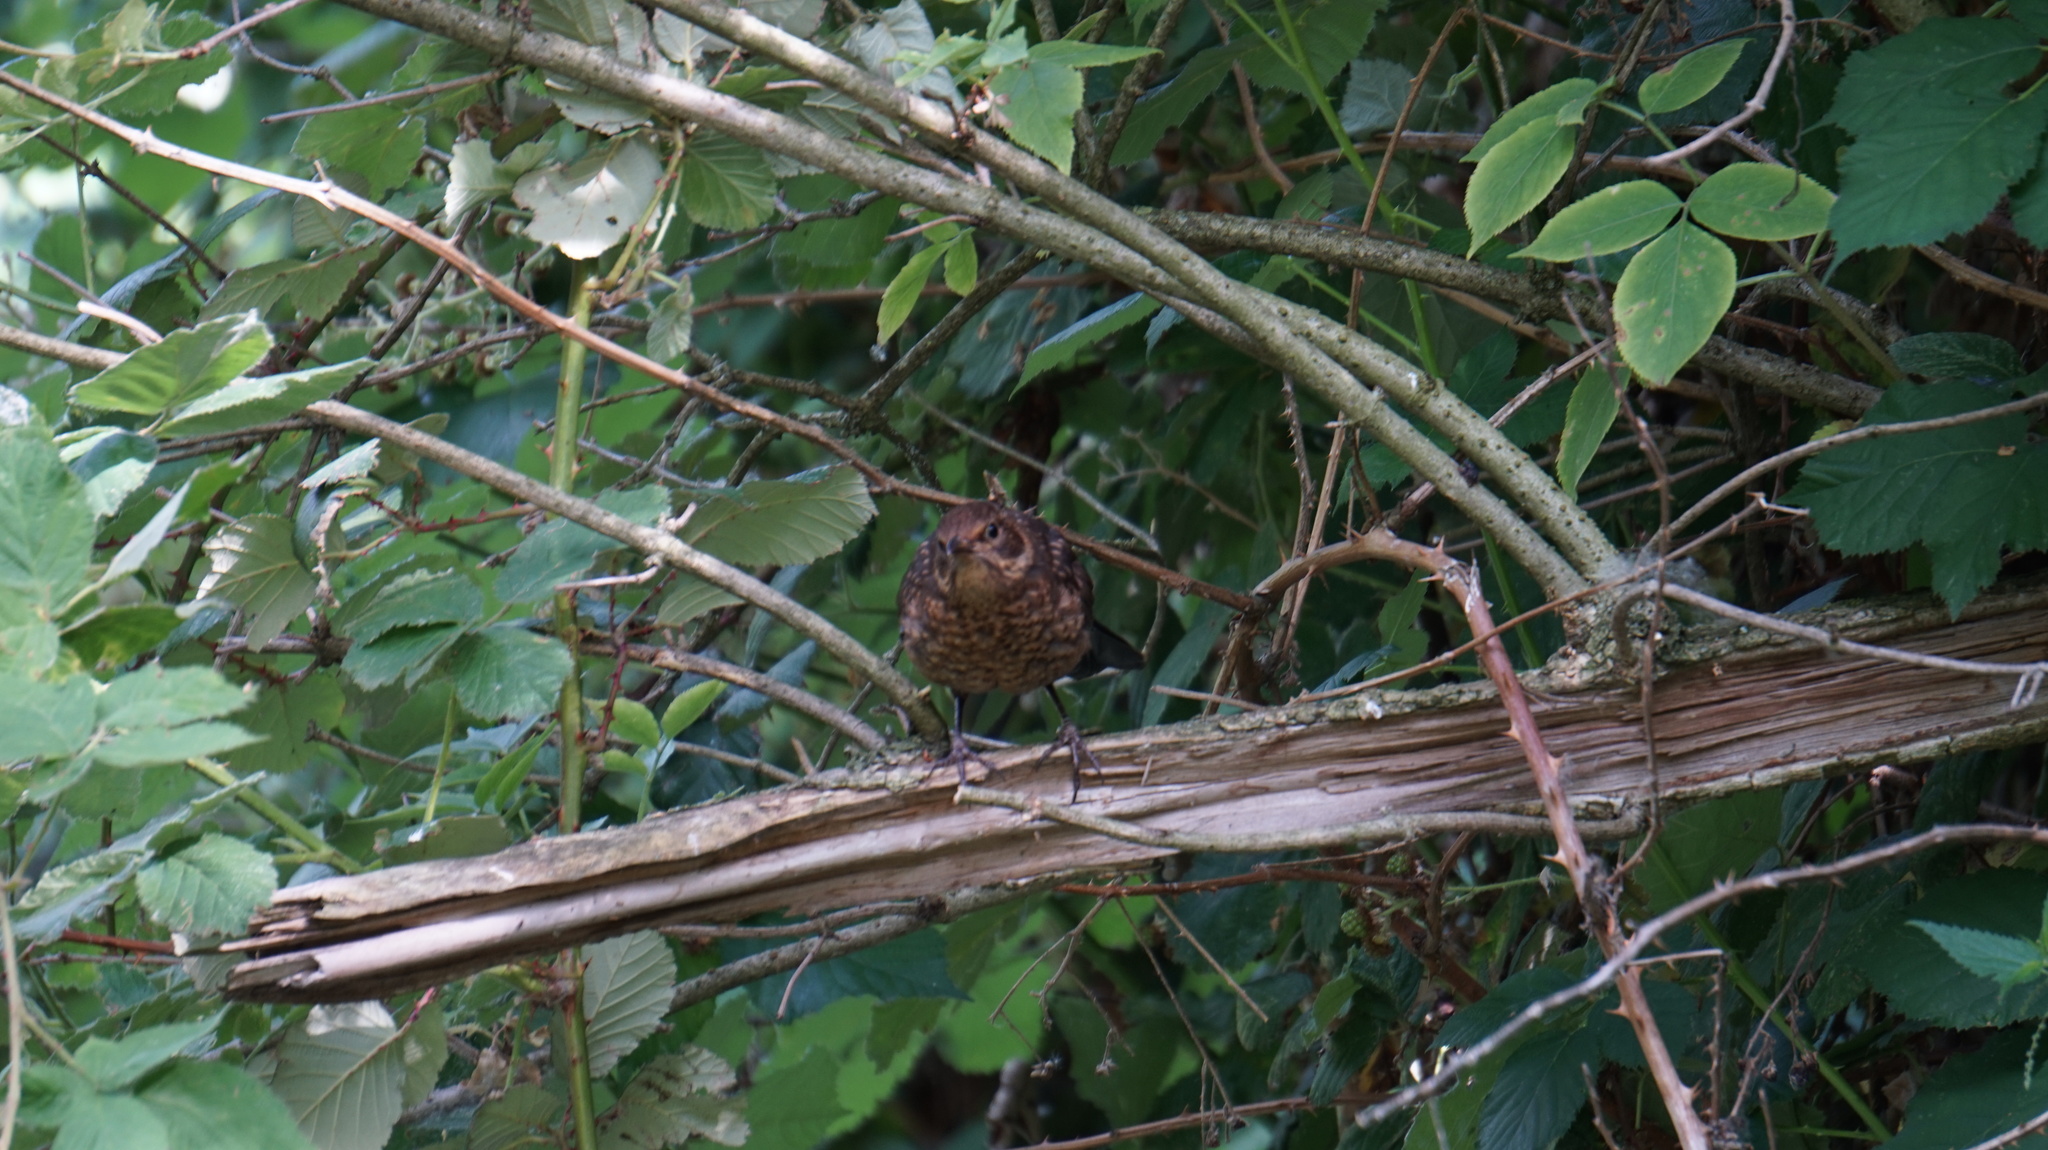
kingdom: Animalia
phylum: Chordata
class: Aves
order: Passeriformes
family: Turdidae
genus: Turdus
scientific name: Turdus merula
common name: Common blackbird
